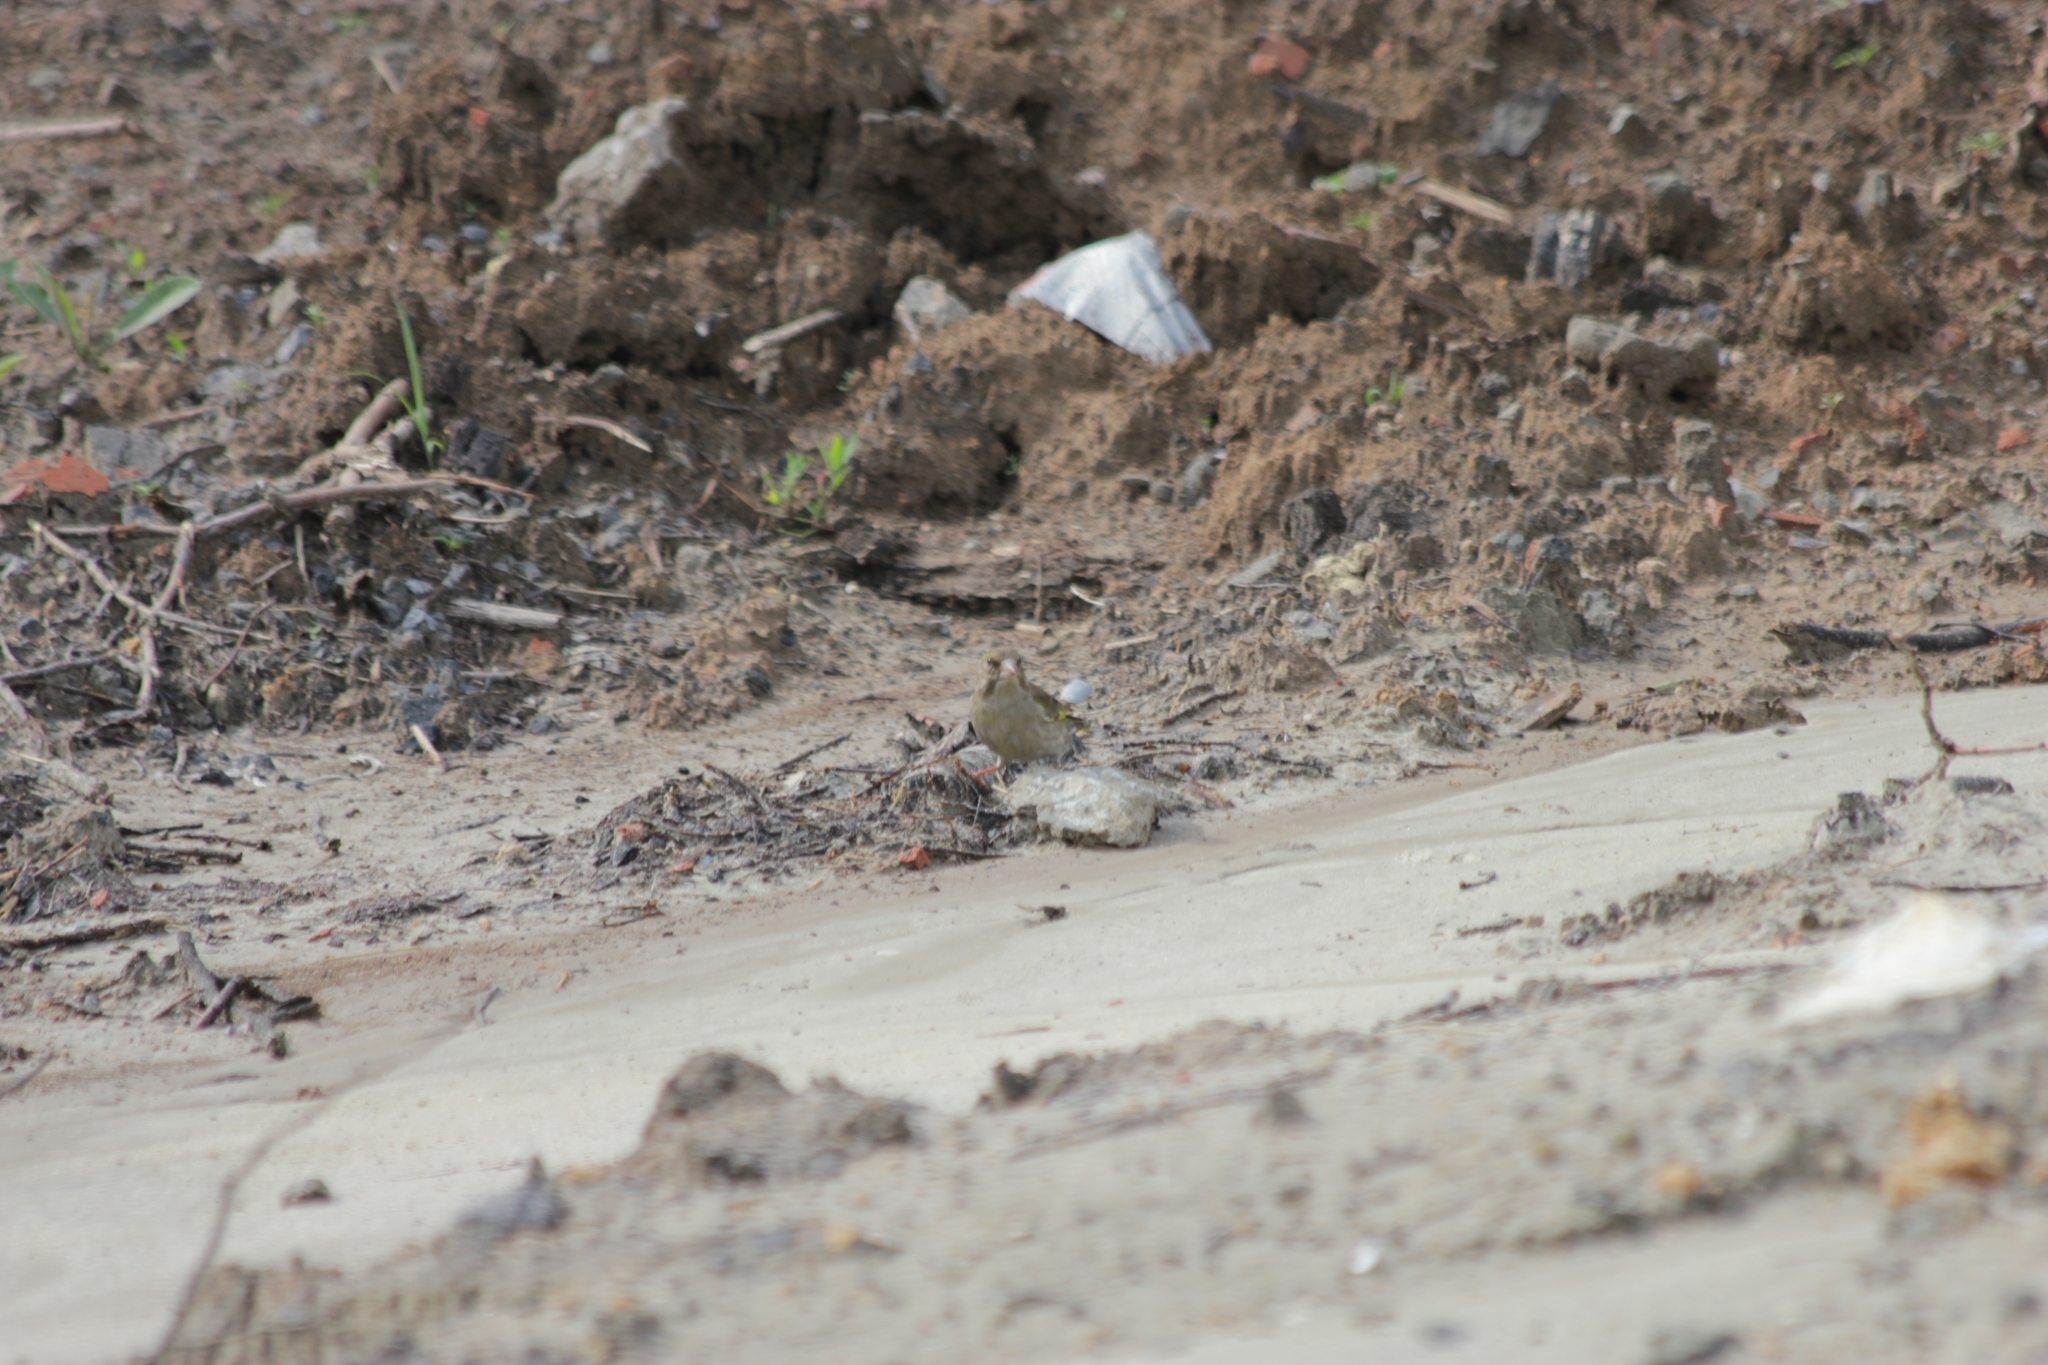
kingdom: Plantae
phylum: Tracheophyta
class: Liliopsida
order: Poales
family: Poaceae
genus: Chloris
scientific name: Chloris chloris
